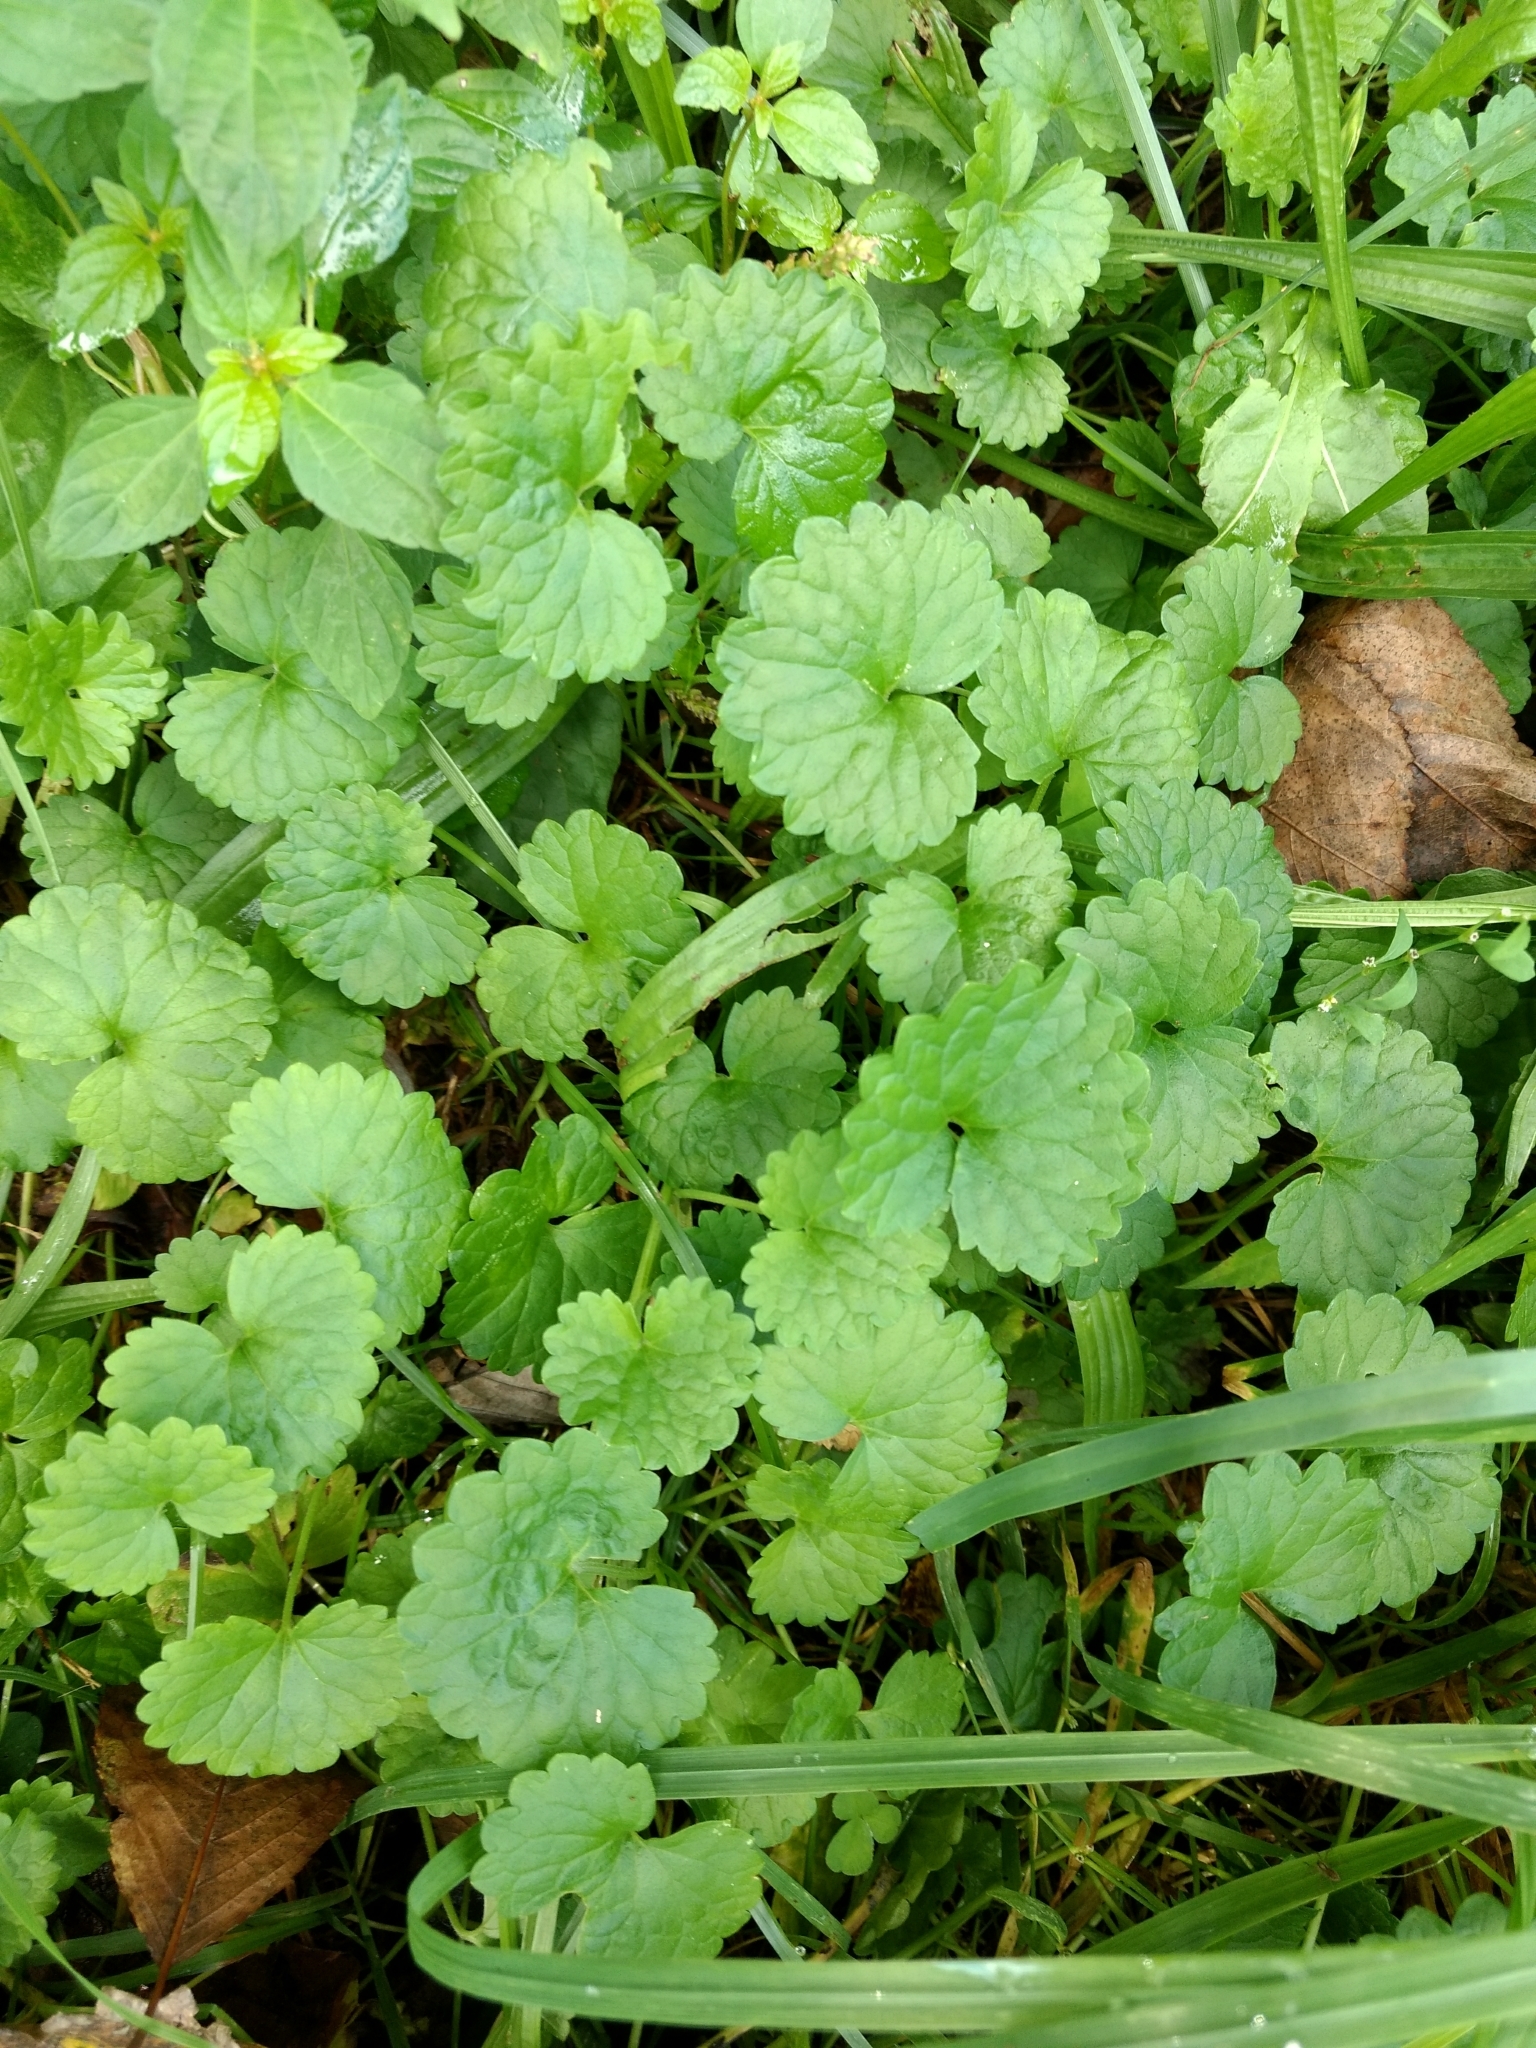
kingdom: Plantae
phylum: Tracheophyta
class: Magnoliopsida
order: Lamiales
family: Lamiaceae
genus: Glechoma
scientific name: Glechoma hederacea
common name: Ground ivy
